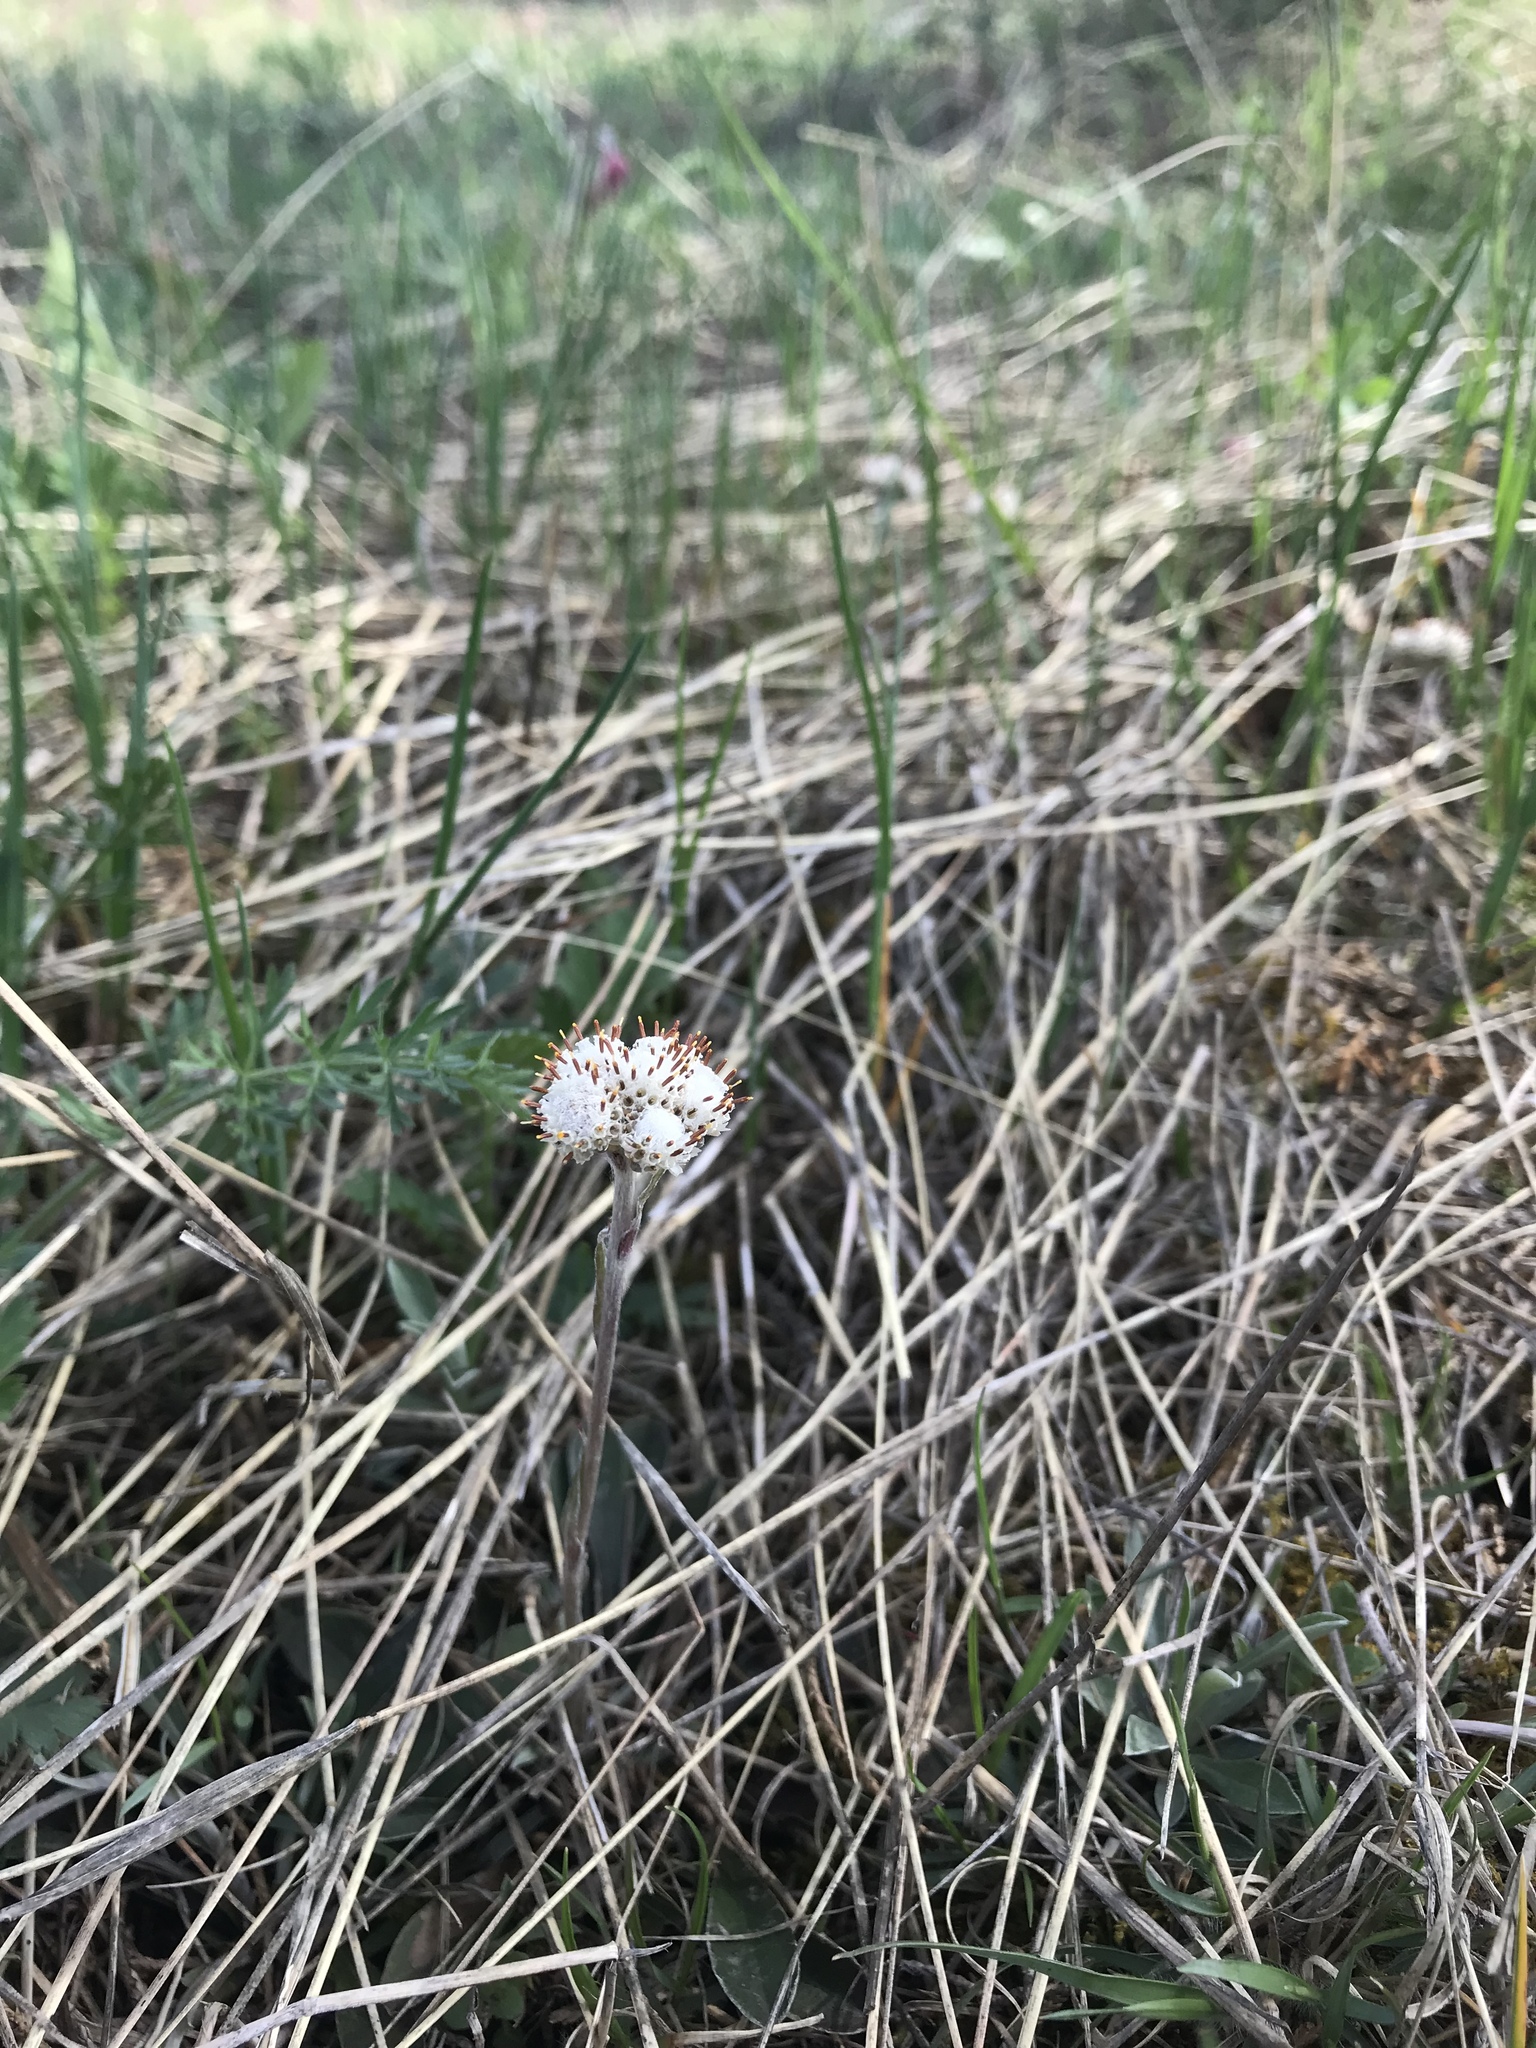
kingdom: Plantae
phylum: Tracheophyta
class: Magnoliopsida
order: Asterales
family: Asteraceae
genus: Antennaria
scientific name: Antennaria neglecta
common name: Field pussytoes
